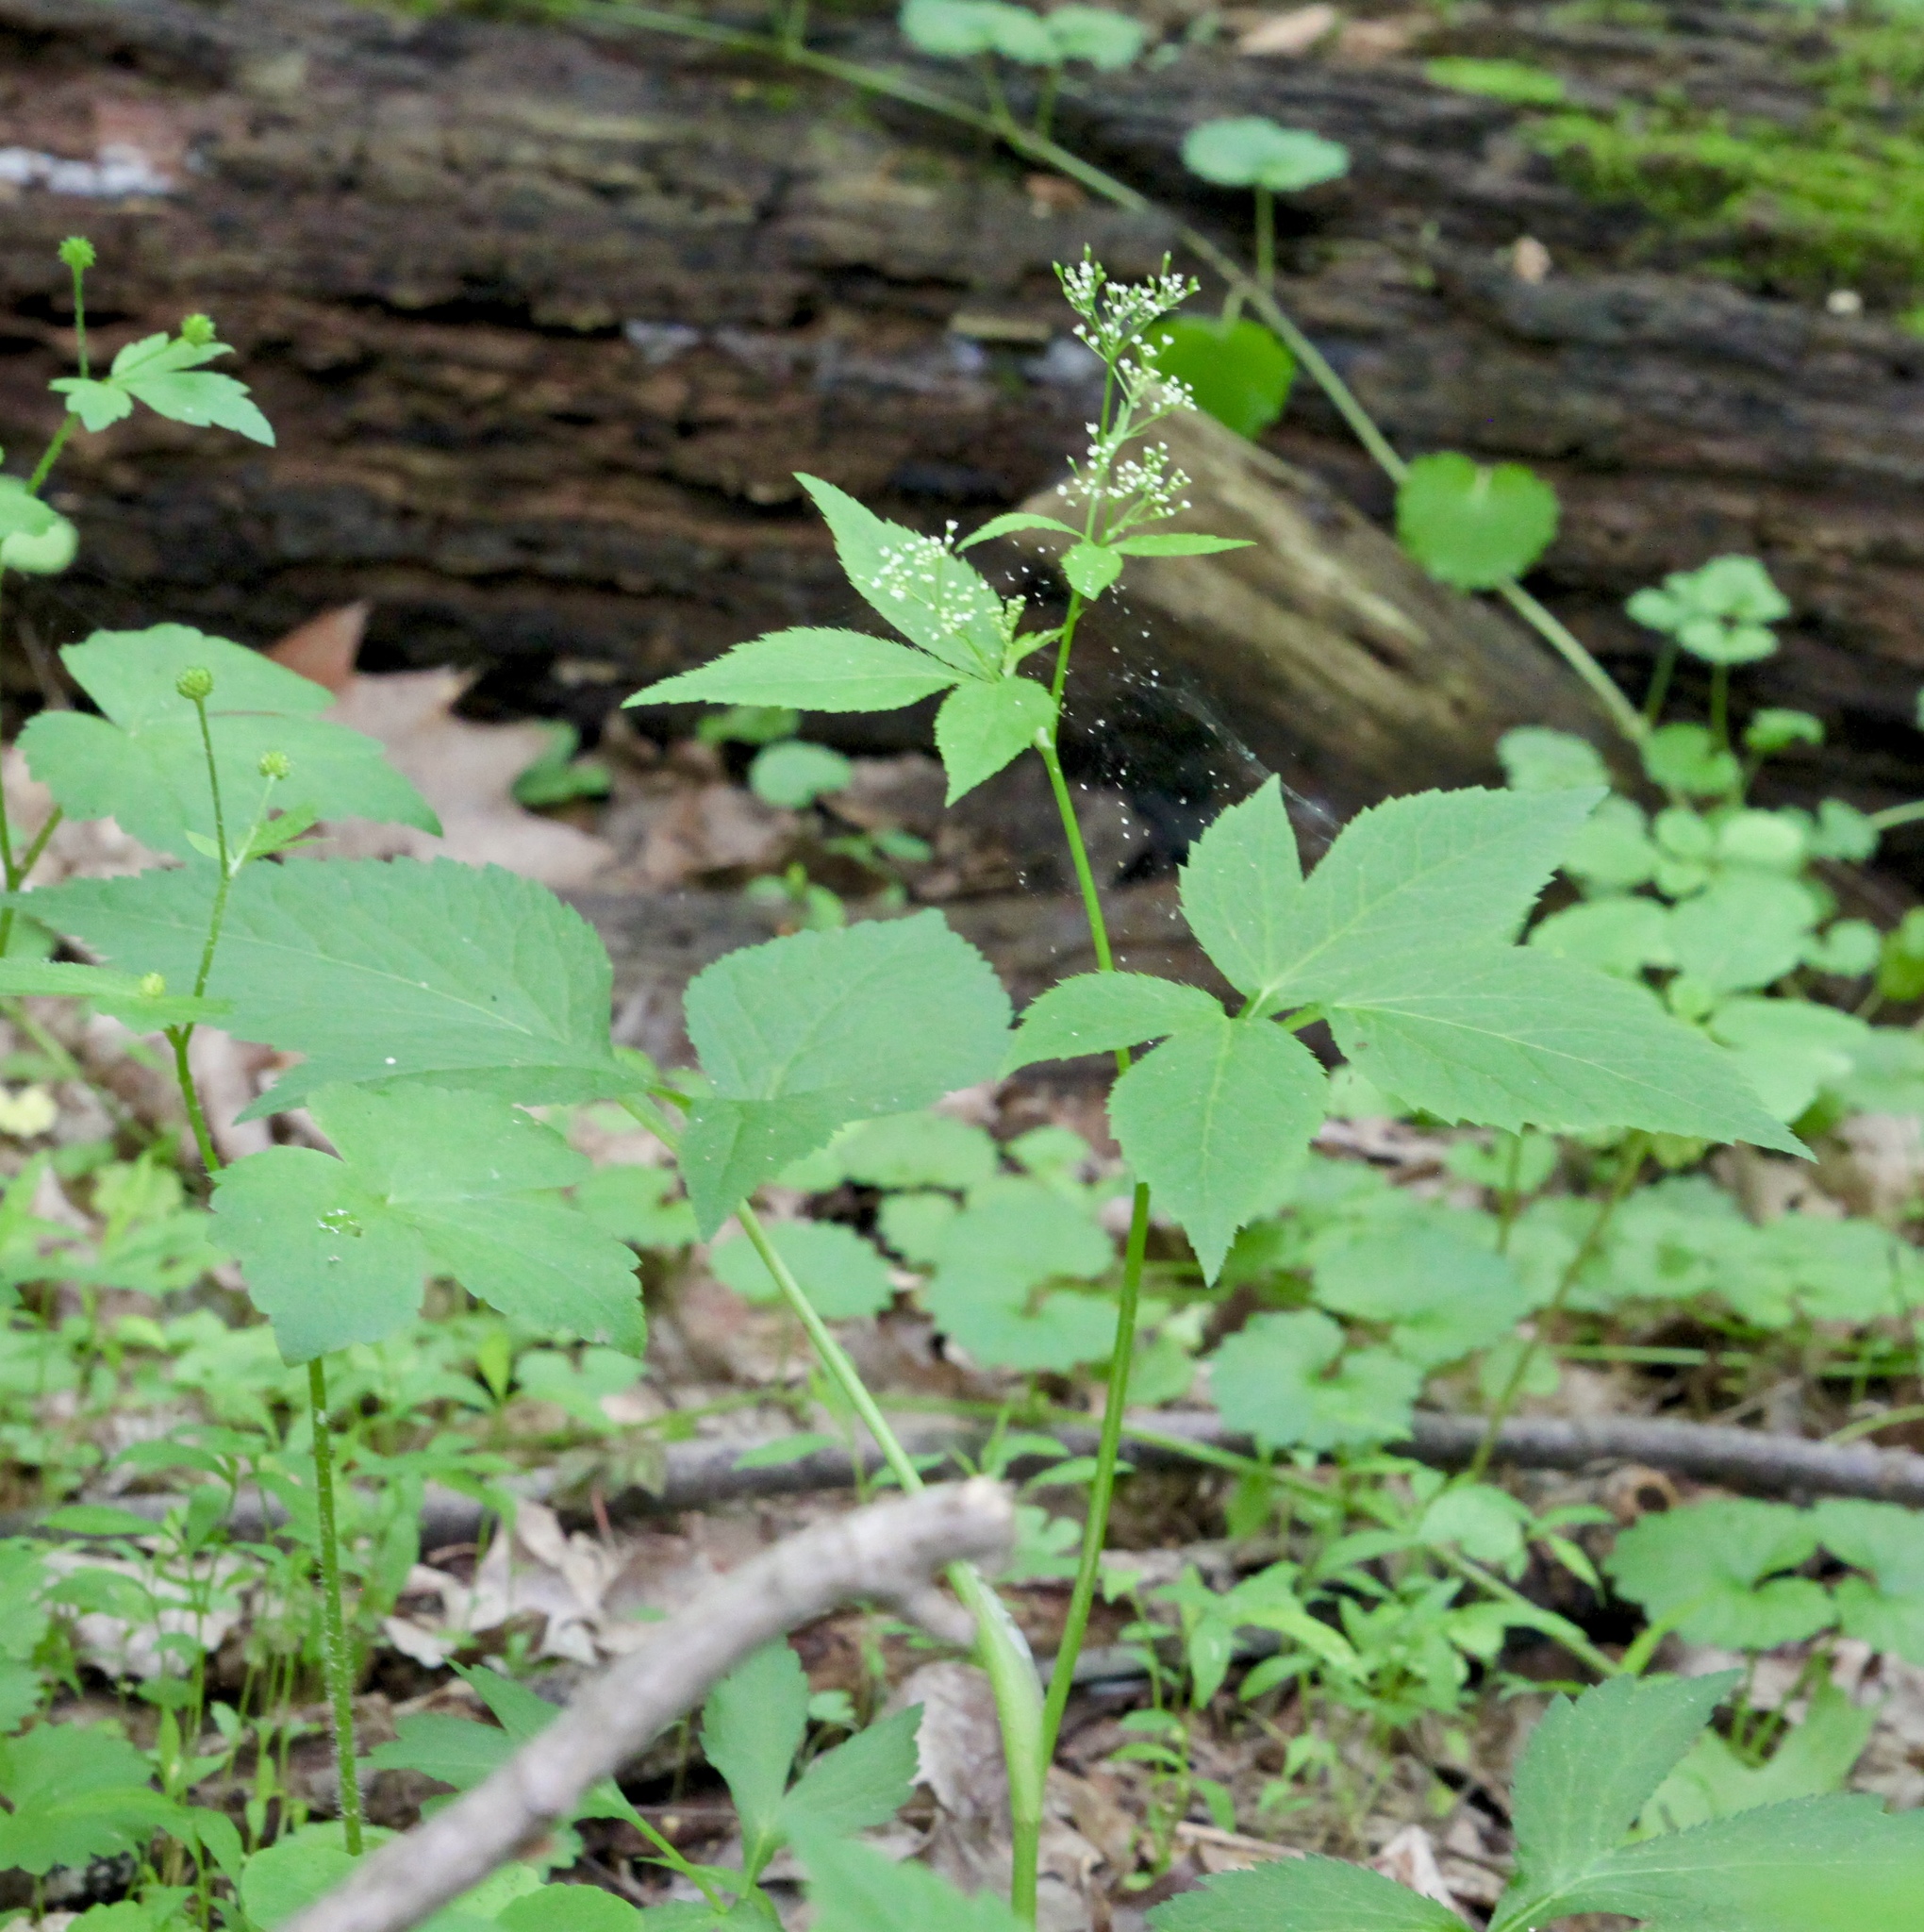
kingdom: Plantae
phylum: Tracheophyta
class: Magnoliopsida
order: Apiales
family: Apiaceae
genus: Cryptotaenia
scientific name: Cryptotaenia canadensis
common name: Honewort
